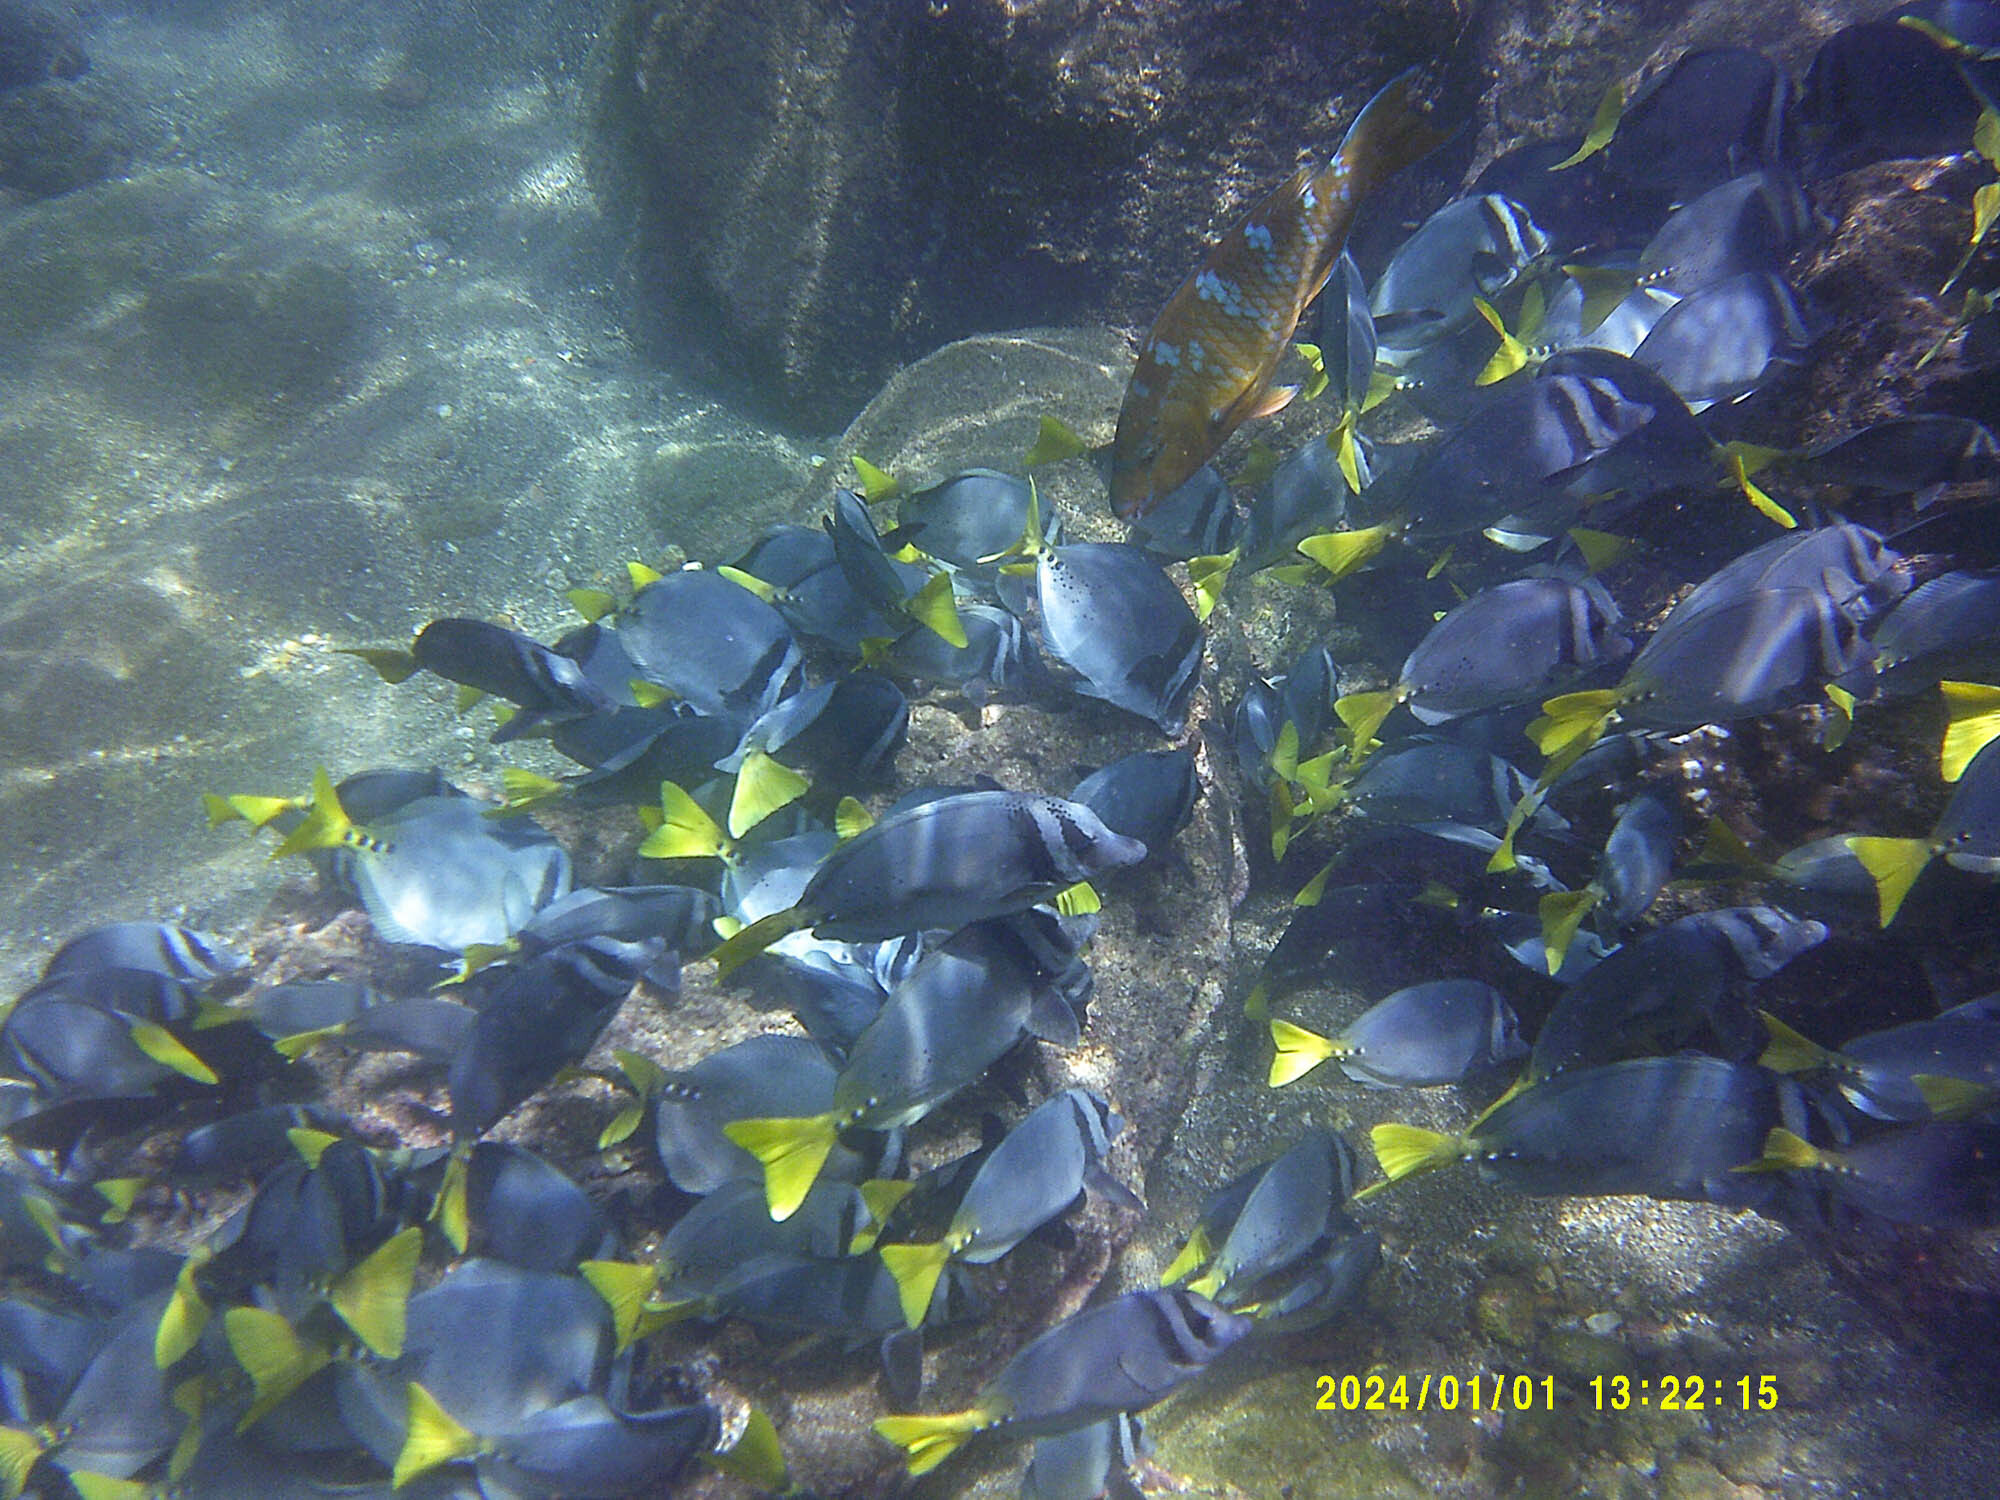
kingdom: Animalia
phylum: Chordata
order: Perciformes
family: Acanthuridae
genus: Prionurus
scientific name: Prionurus laticlavius
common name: Razor surgeonfish
